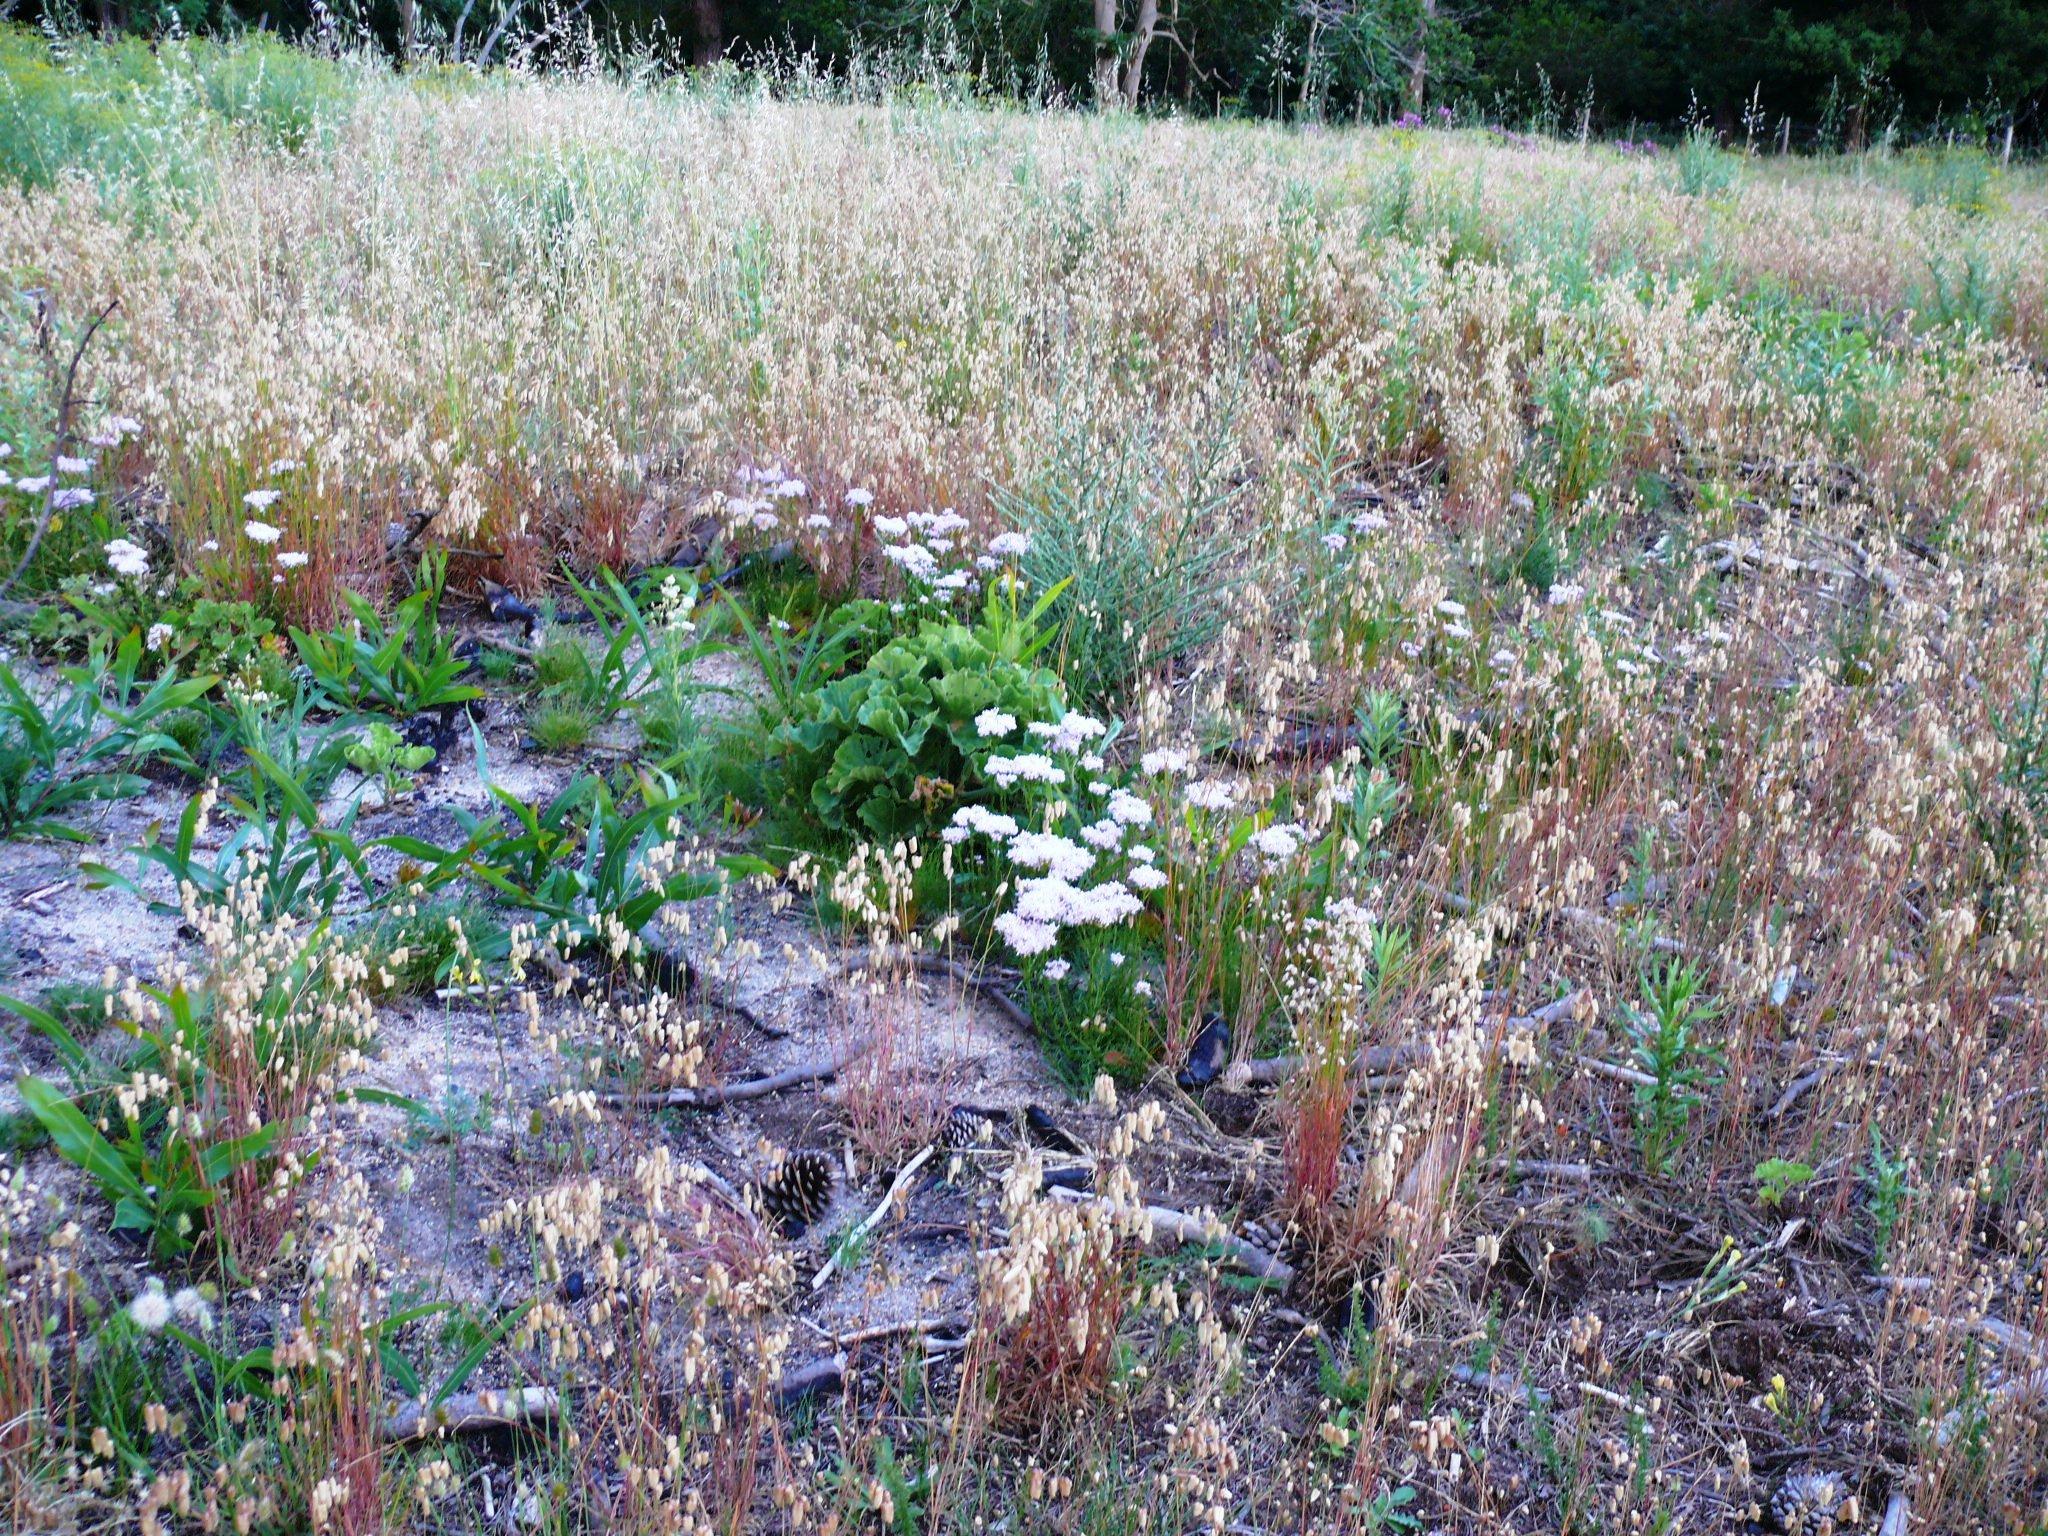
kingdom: Plantae
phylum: Tracheophyta
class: Magnoliopsida
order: Lamiales
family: Scrophulariaceae
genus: Pseudoselago
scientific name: Pseudoselago spuria
